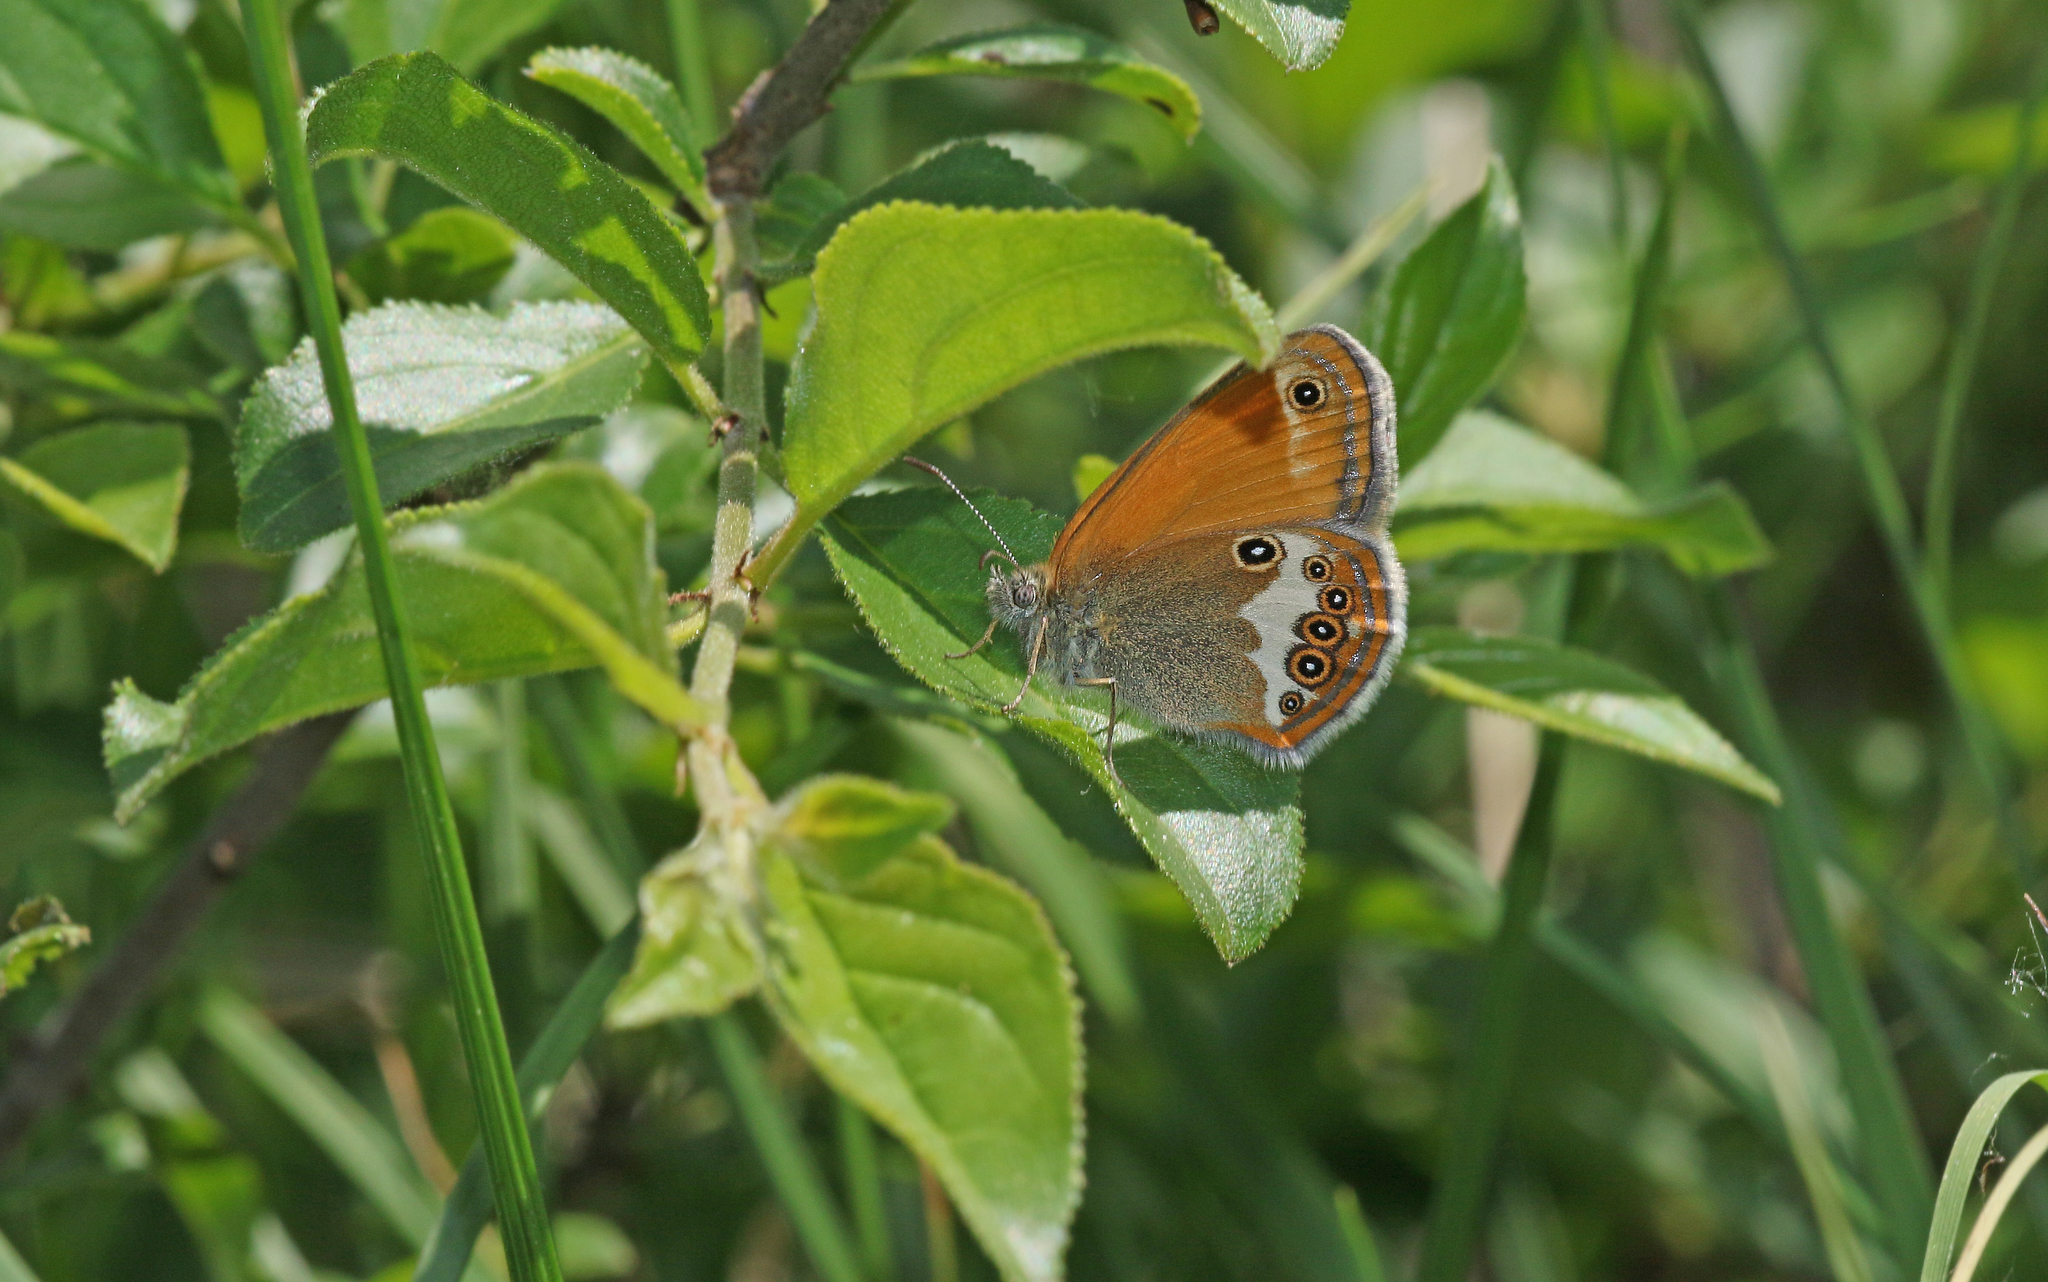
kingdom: Animalia
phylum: Arthropoda
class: Insecta
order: Lepidoptera
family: Nymphalidae
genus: Coenonympha
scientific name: Coenonympha arcania
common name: Pearly heath
